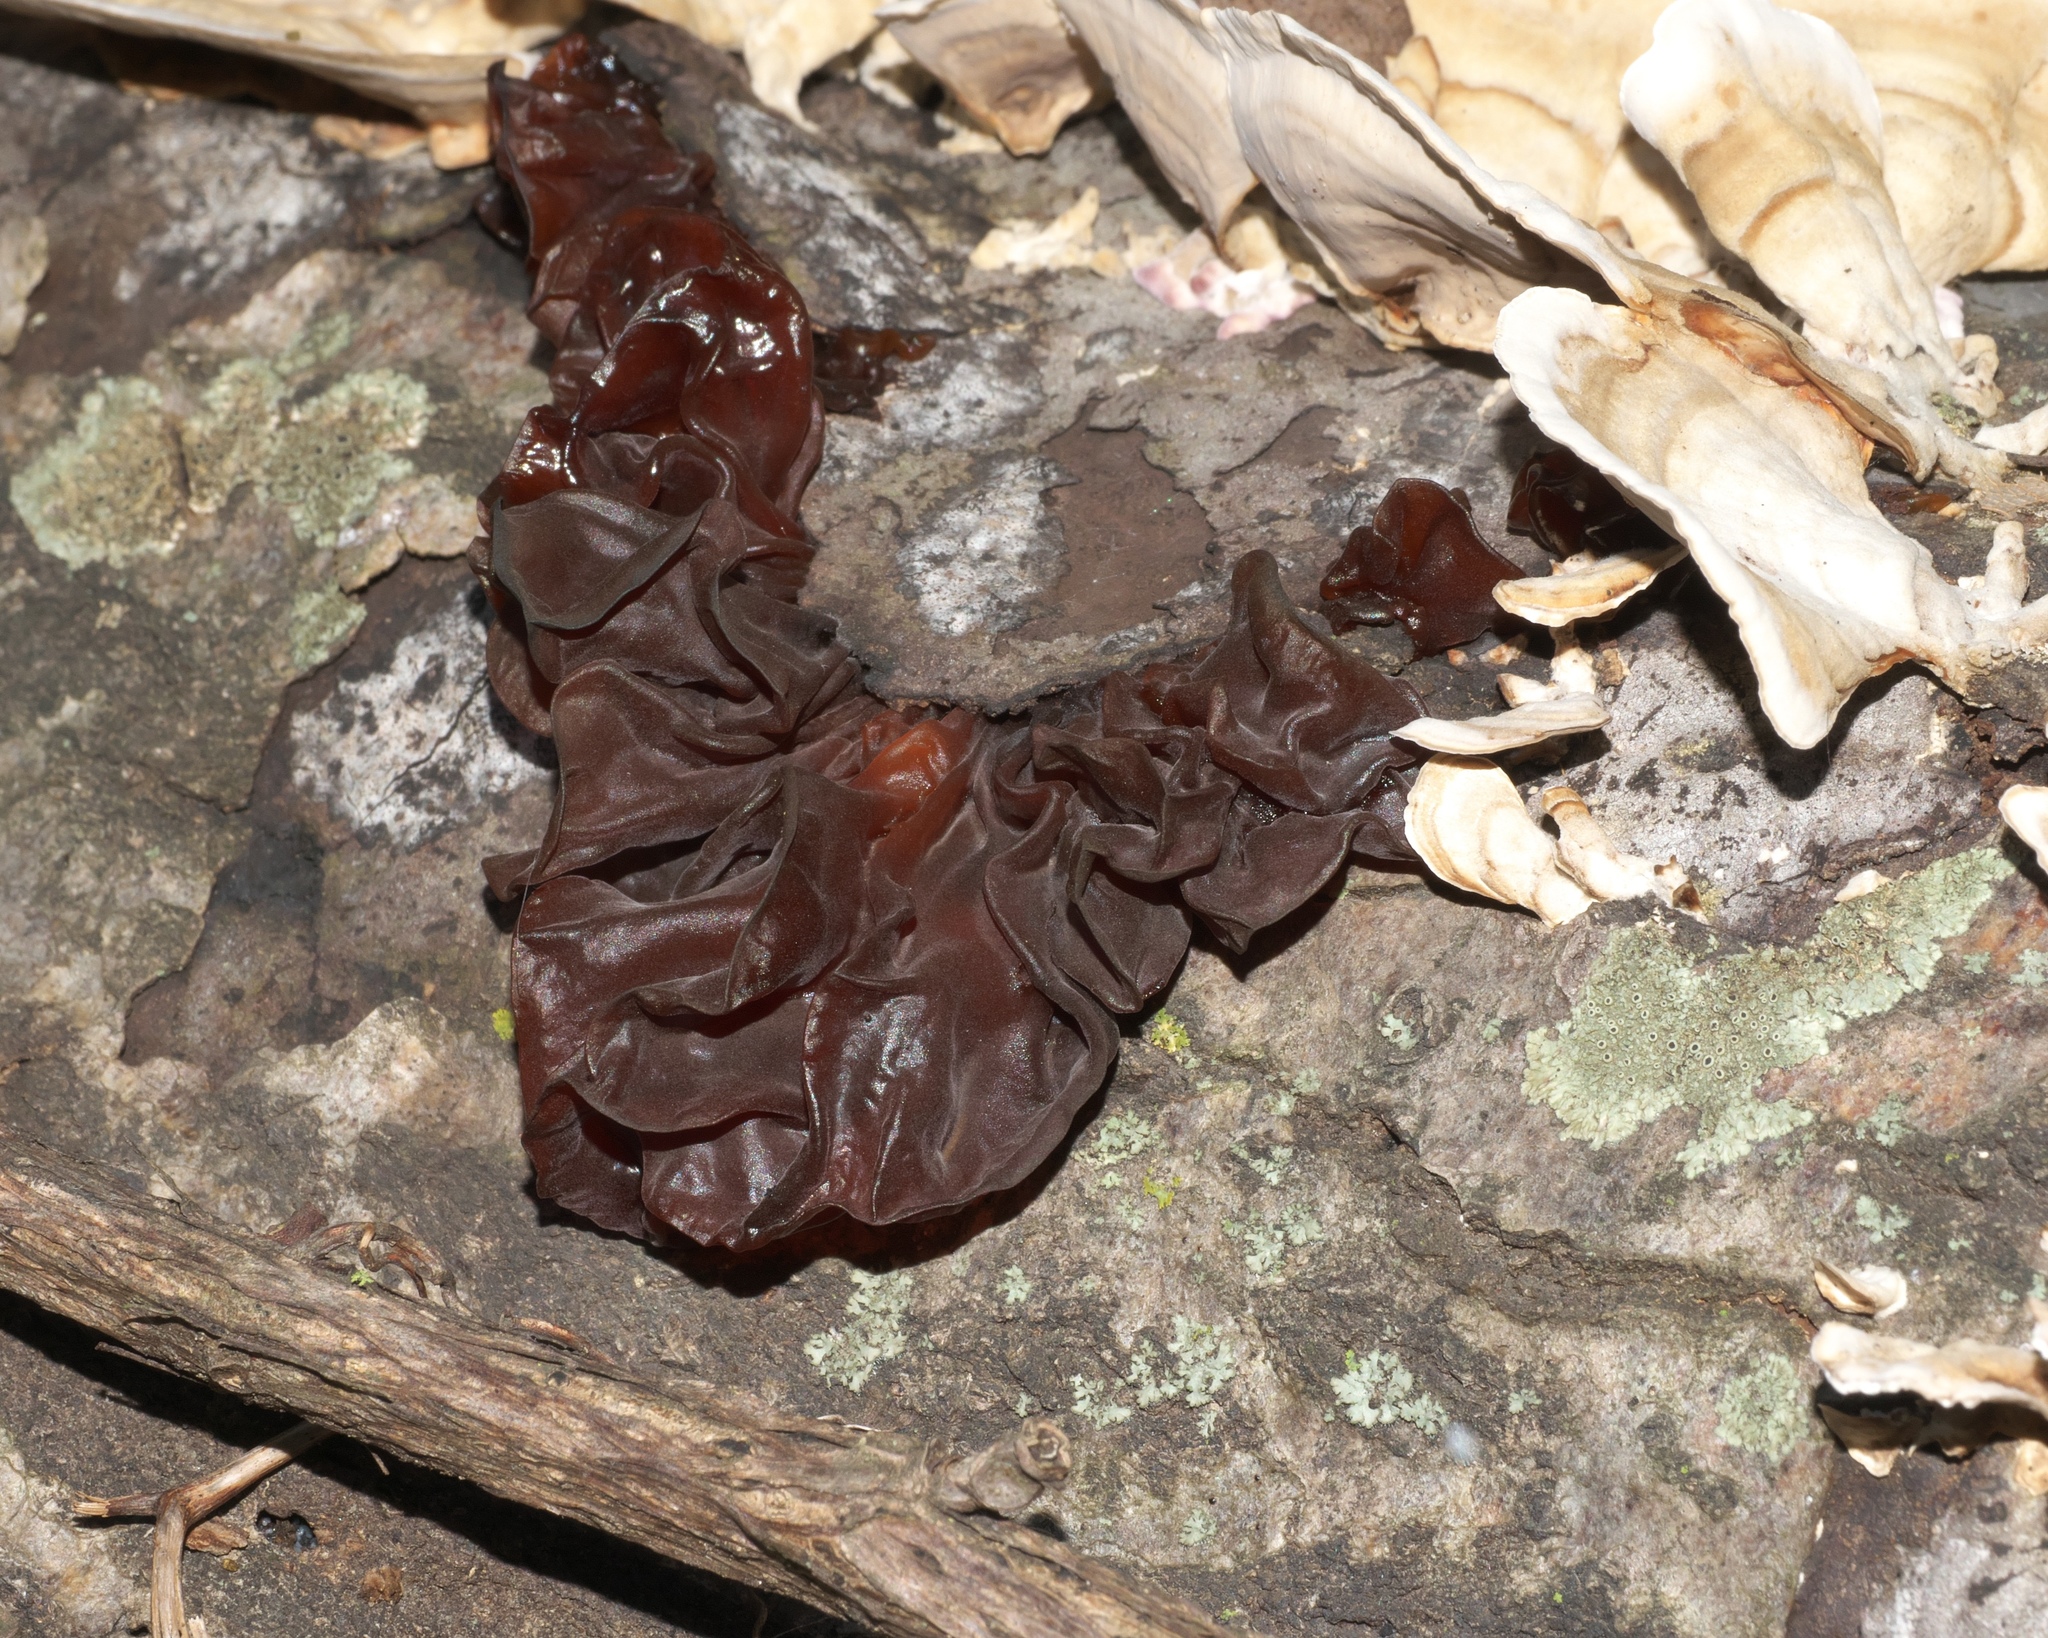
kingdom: Fungi
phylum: Basidiomycota
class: Agaricomycetes
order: Auriculariales
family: Auriculariaceae
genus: Auricularia
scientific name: Auricularia americana
